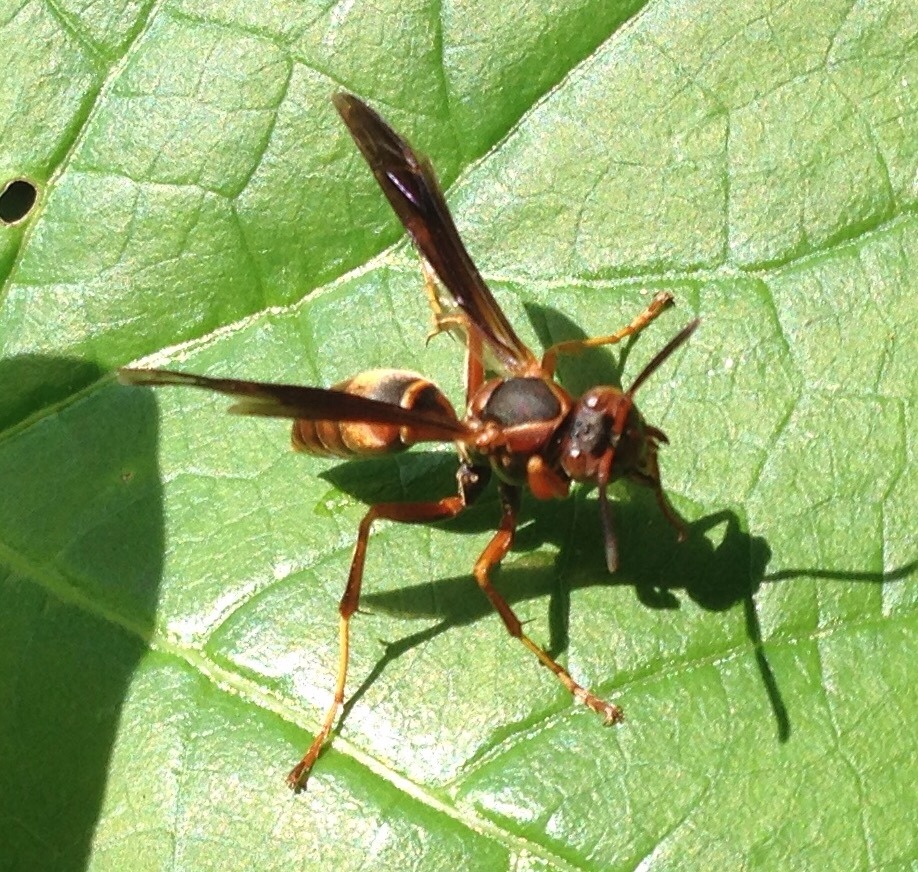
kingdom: Animalia
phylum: Arthropoda
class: Insecta
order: Hymenoptera
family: Eumenidae
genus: Polistes
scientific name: Polistes fuscatus
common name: Dark paper wasp
